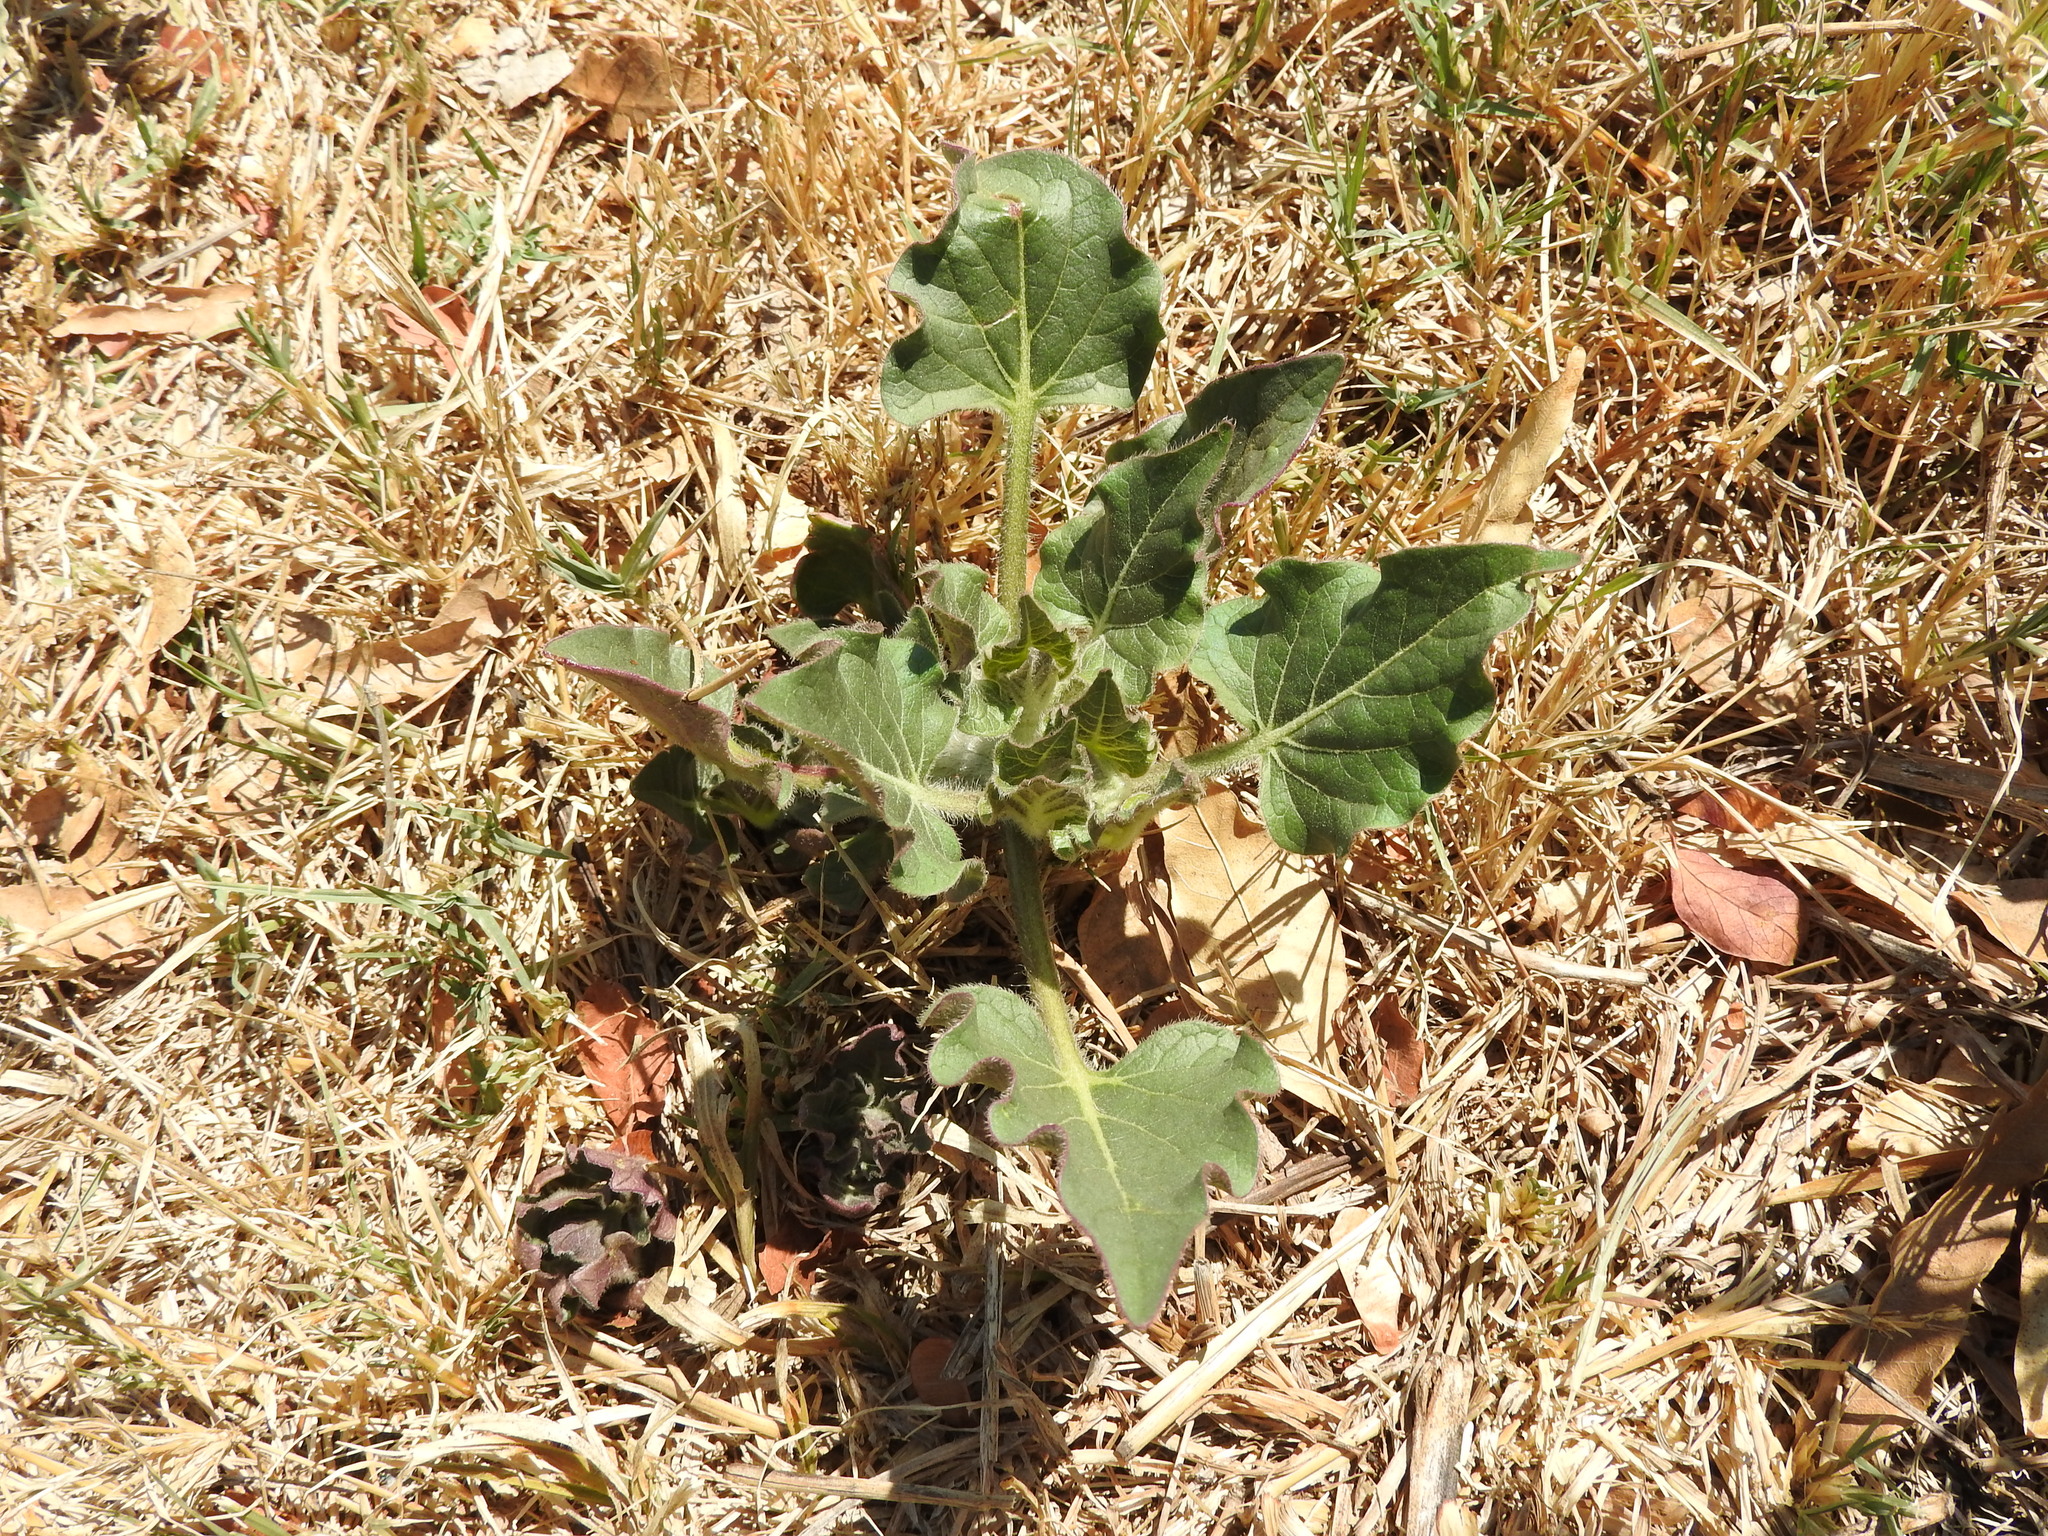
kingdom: Plantae
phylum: Tracheophyta
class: Magnoliopsida
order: Caryophyllales
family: Nyctaginaceae
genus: Mirabilis
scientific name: Mirabilis viscosa
